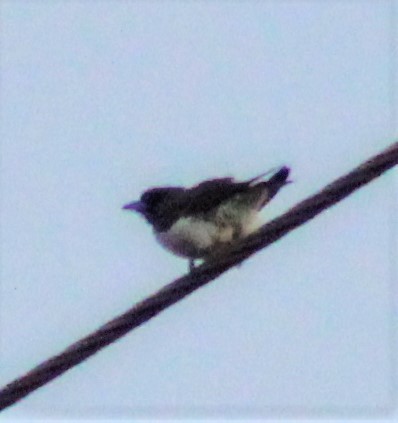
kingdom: Animalia
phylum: Chordata
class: Aves
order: Passeriformes
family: Artamidae
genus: Artamus
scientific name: Artamus leucoryn
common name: White-breasted woodswallow
